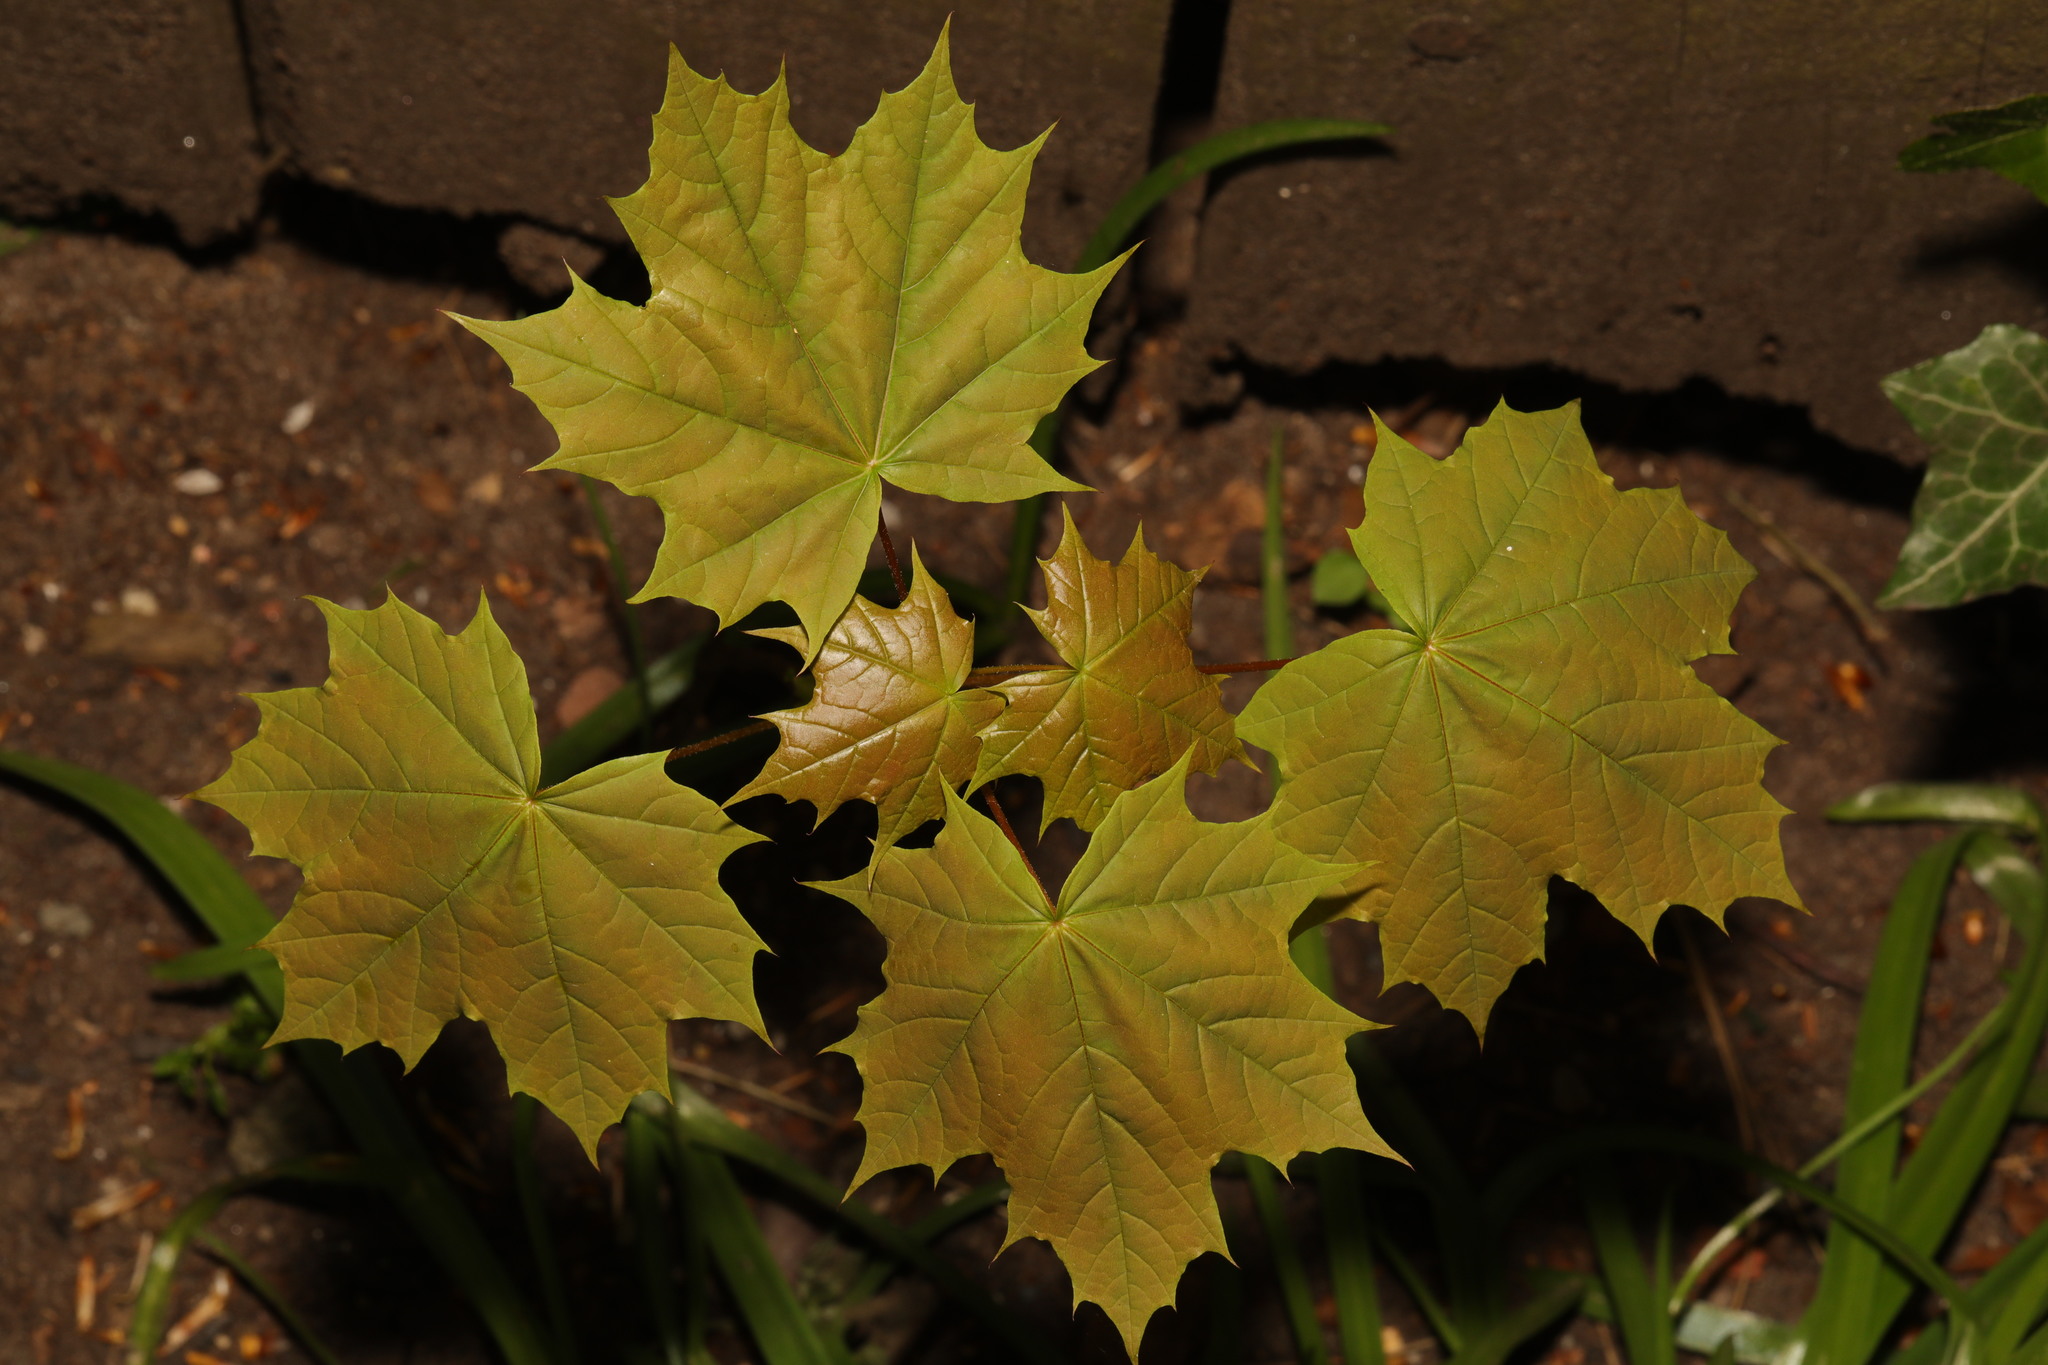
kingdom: Plantae
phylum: Tracheophyta
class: Magnoliopsida
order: Sapindales
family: Sapindaceae
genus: Acer
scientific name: Acer platanoides
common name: Norway maple
